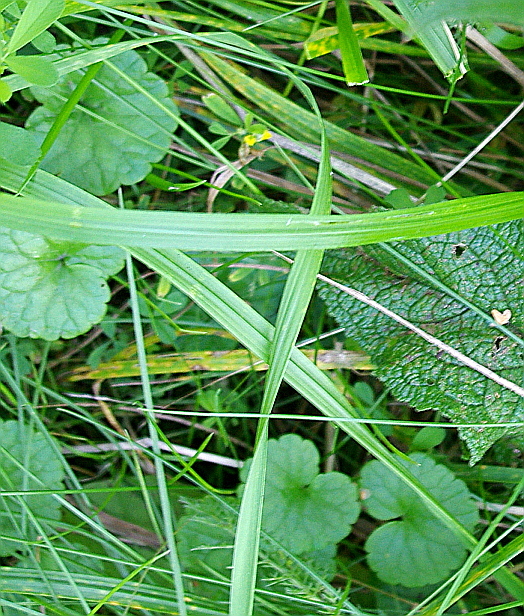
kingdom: Plantae
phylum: Tracheophyta
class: Magnoliopsida
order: Lamiales
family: Lamiaceae
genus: Glechoma
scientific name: Glechoma hederacea
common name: Ground ivy
